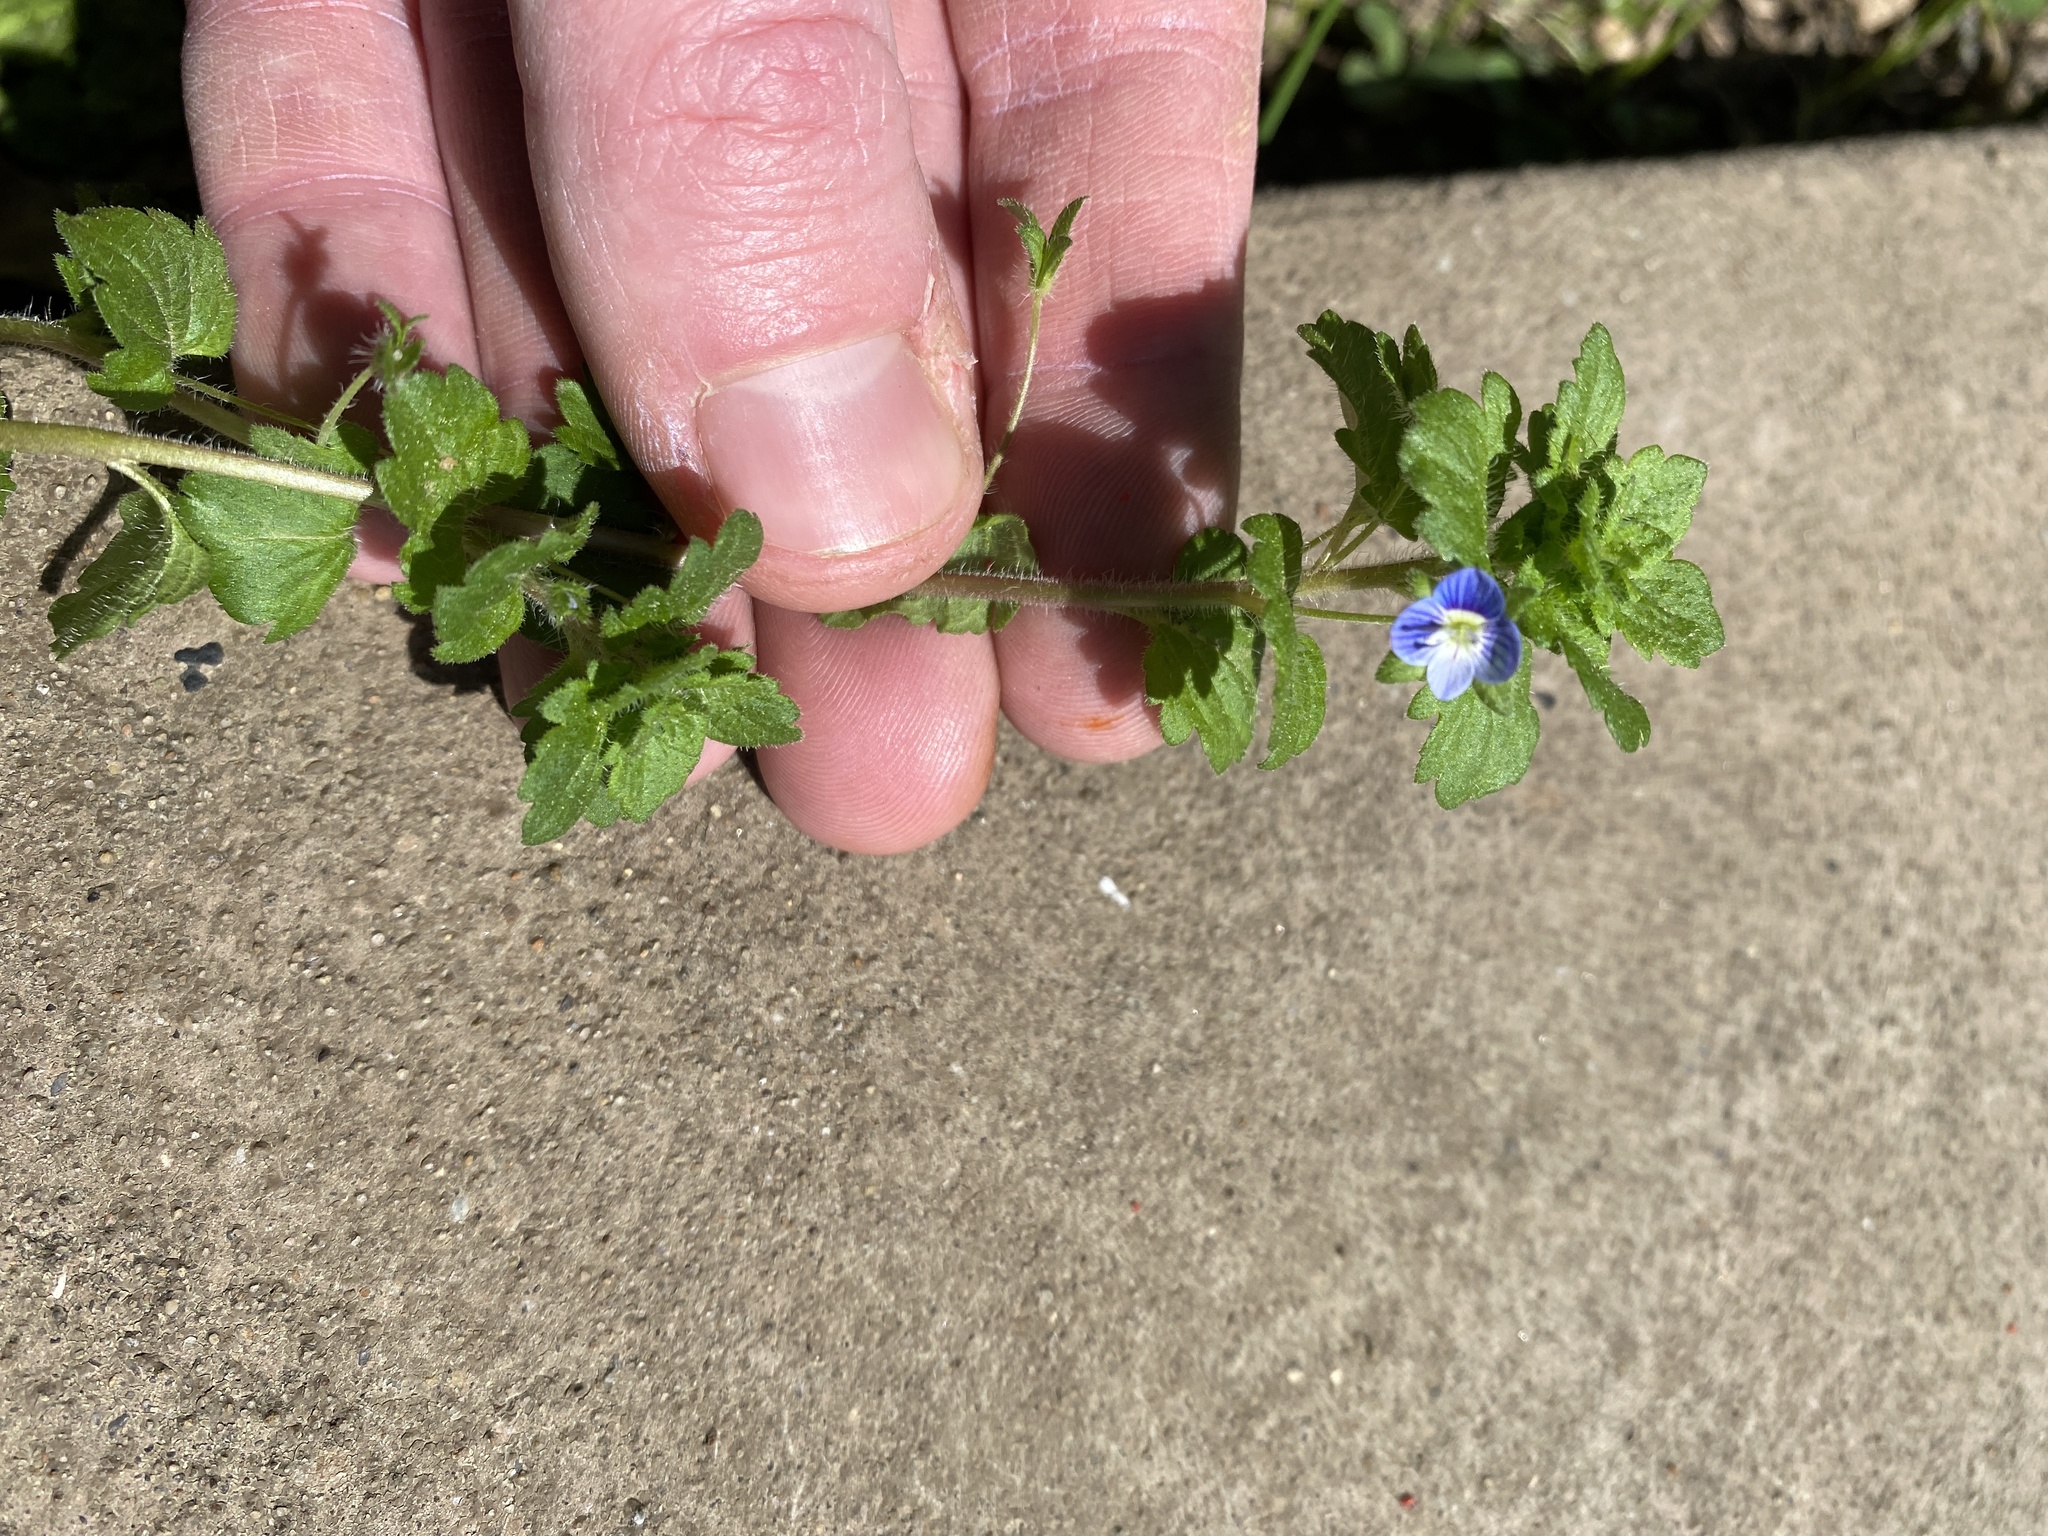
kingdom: Plantae
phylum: Tracheophyta
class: Magnoliopsida
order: Lamiales
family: Plantaginaceae
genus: Veronica
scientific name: Veronica persica
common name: Common field-speedwell
